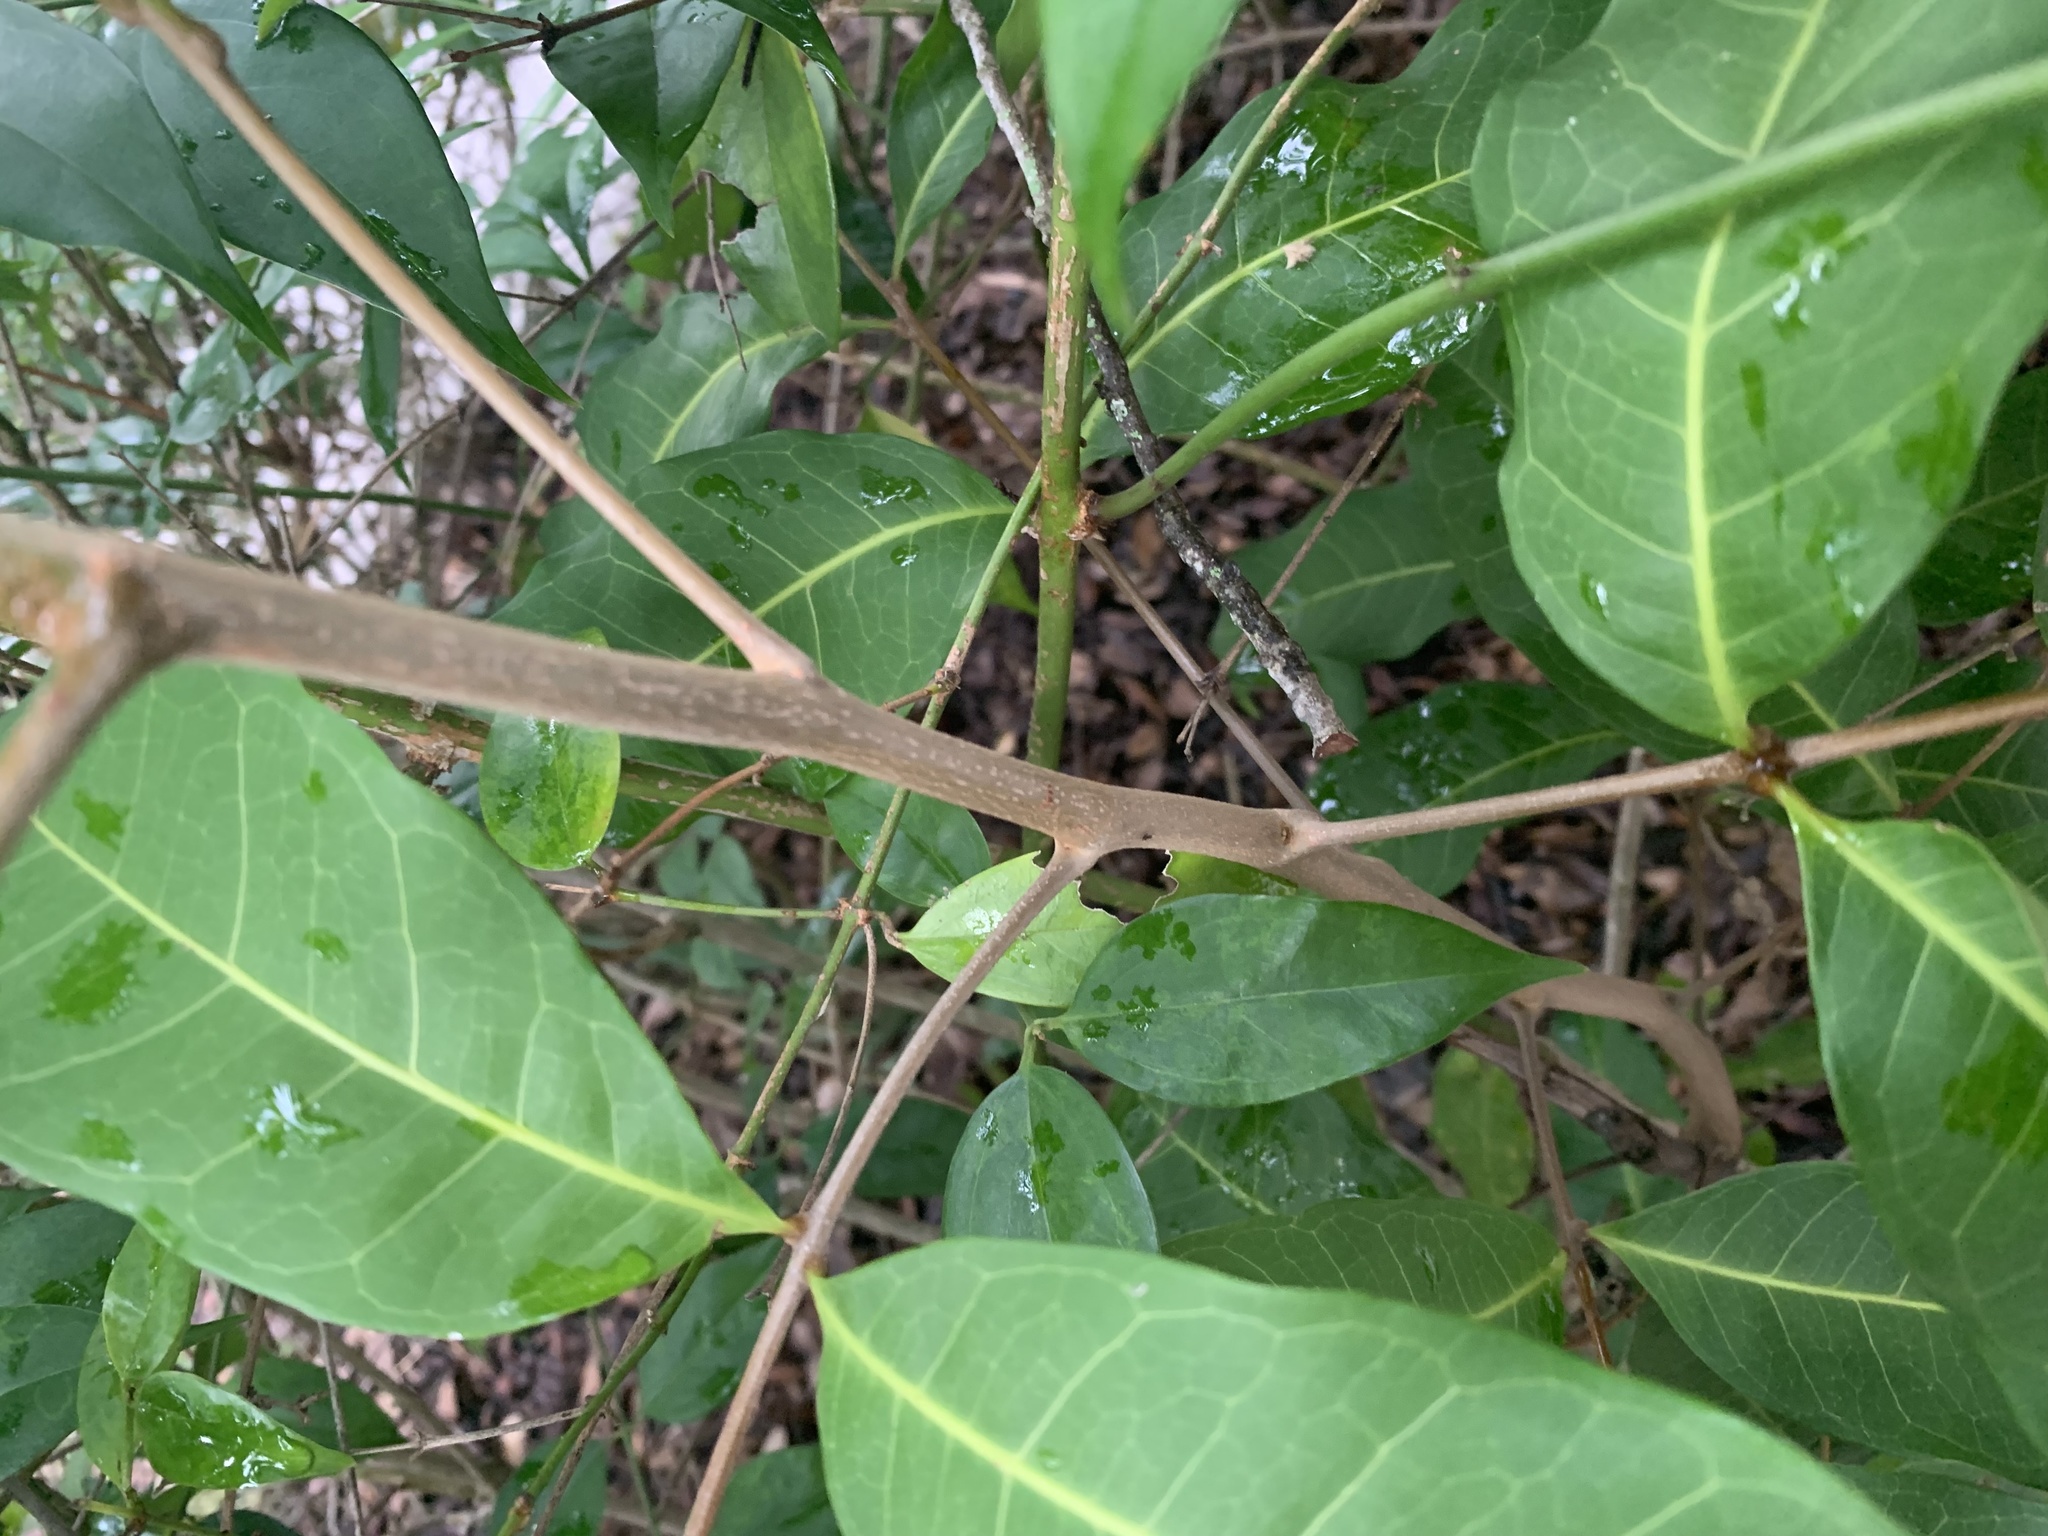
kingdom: Plantae
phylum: Tracheophyta
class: Magnoliopsida
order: Sapindales
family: Sapindaceae
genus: Cupaniopsis
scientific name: Cupaniopsis anacardioides
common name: Carrotwood
